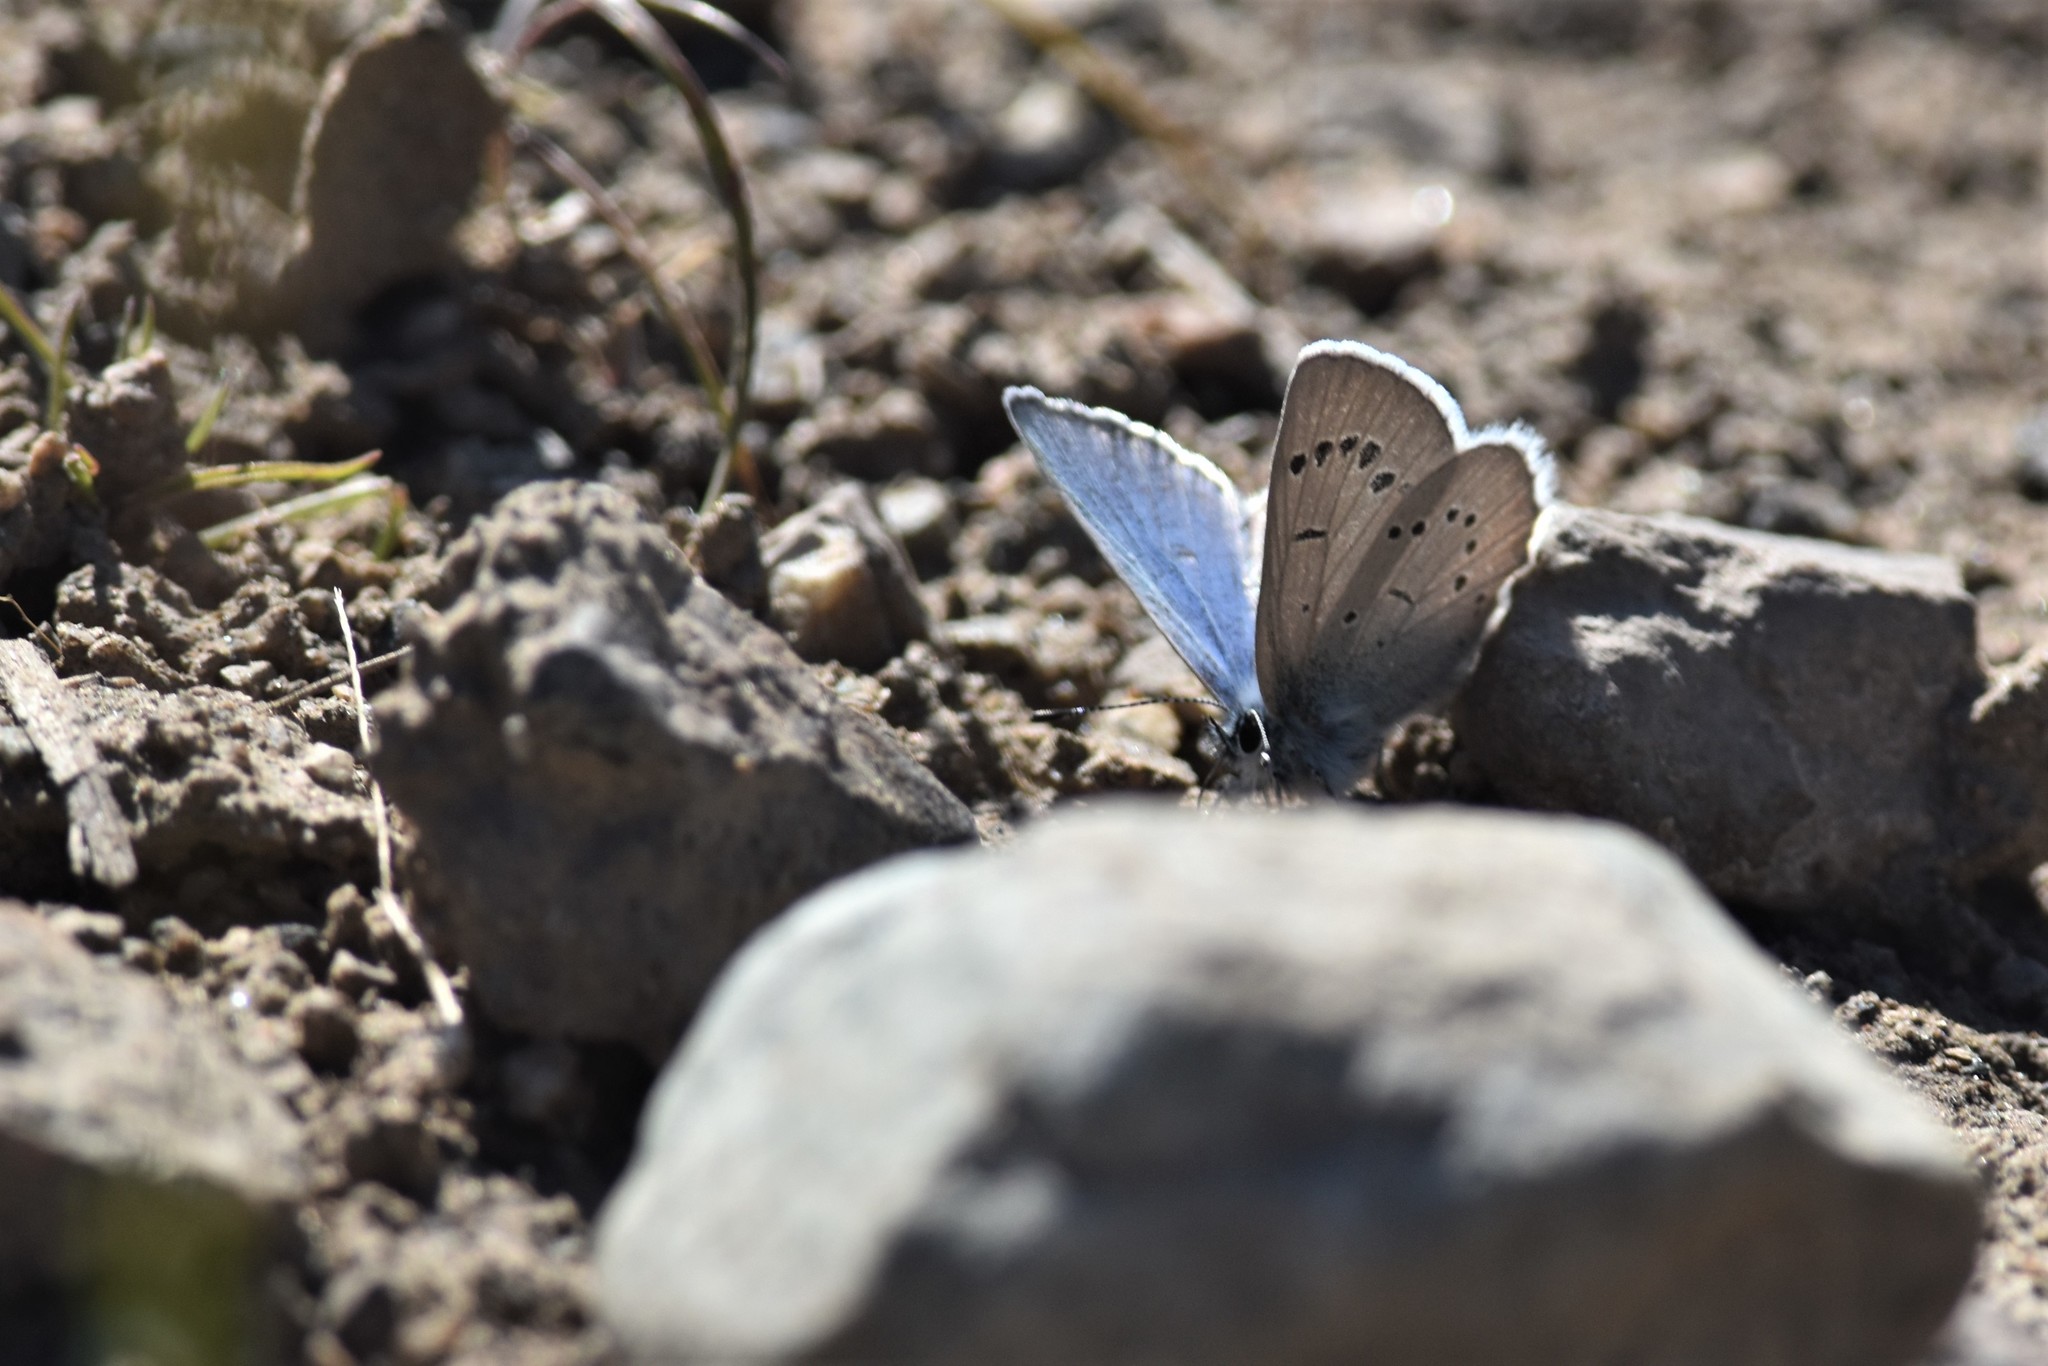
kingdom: Animalia
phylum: Arthropoda
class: Insecta
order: Lepidoptera
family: Lycaenidae
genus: Glaucopsyche
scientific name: Glaucopsyche lygdamus
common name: Silvery blue
